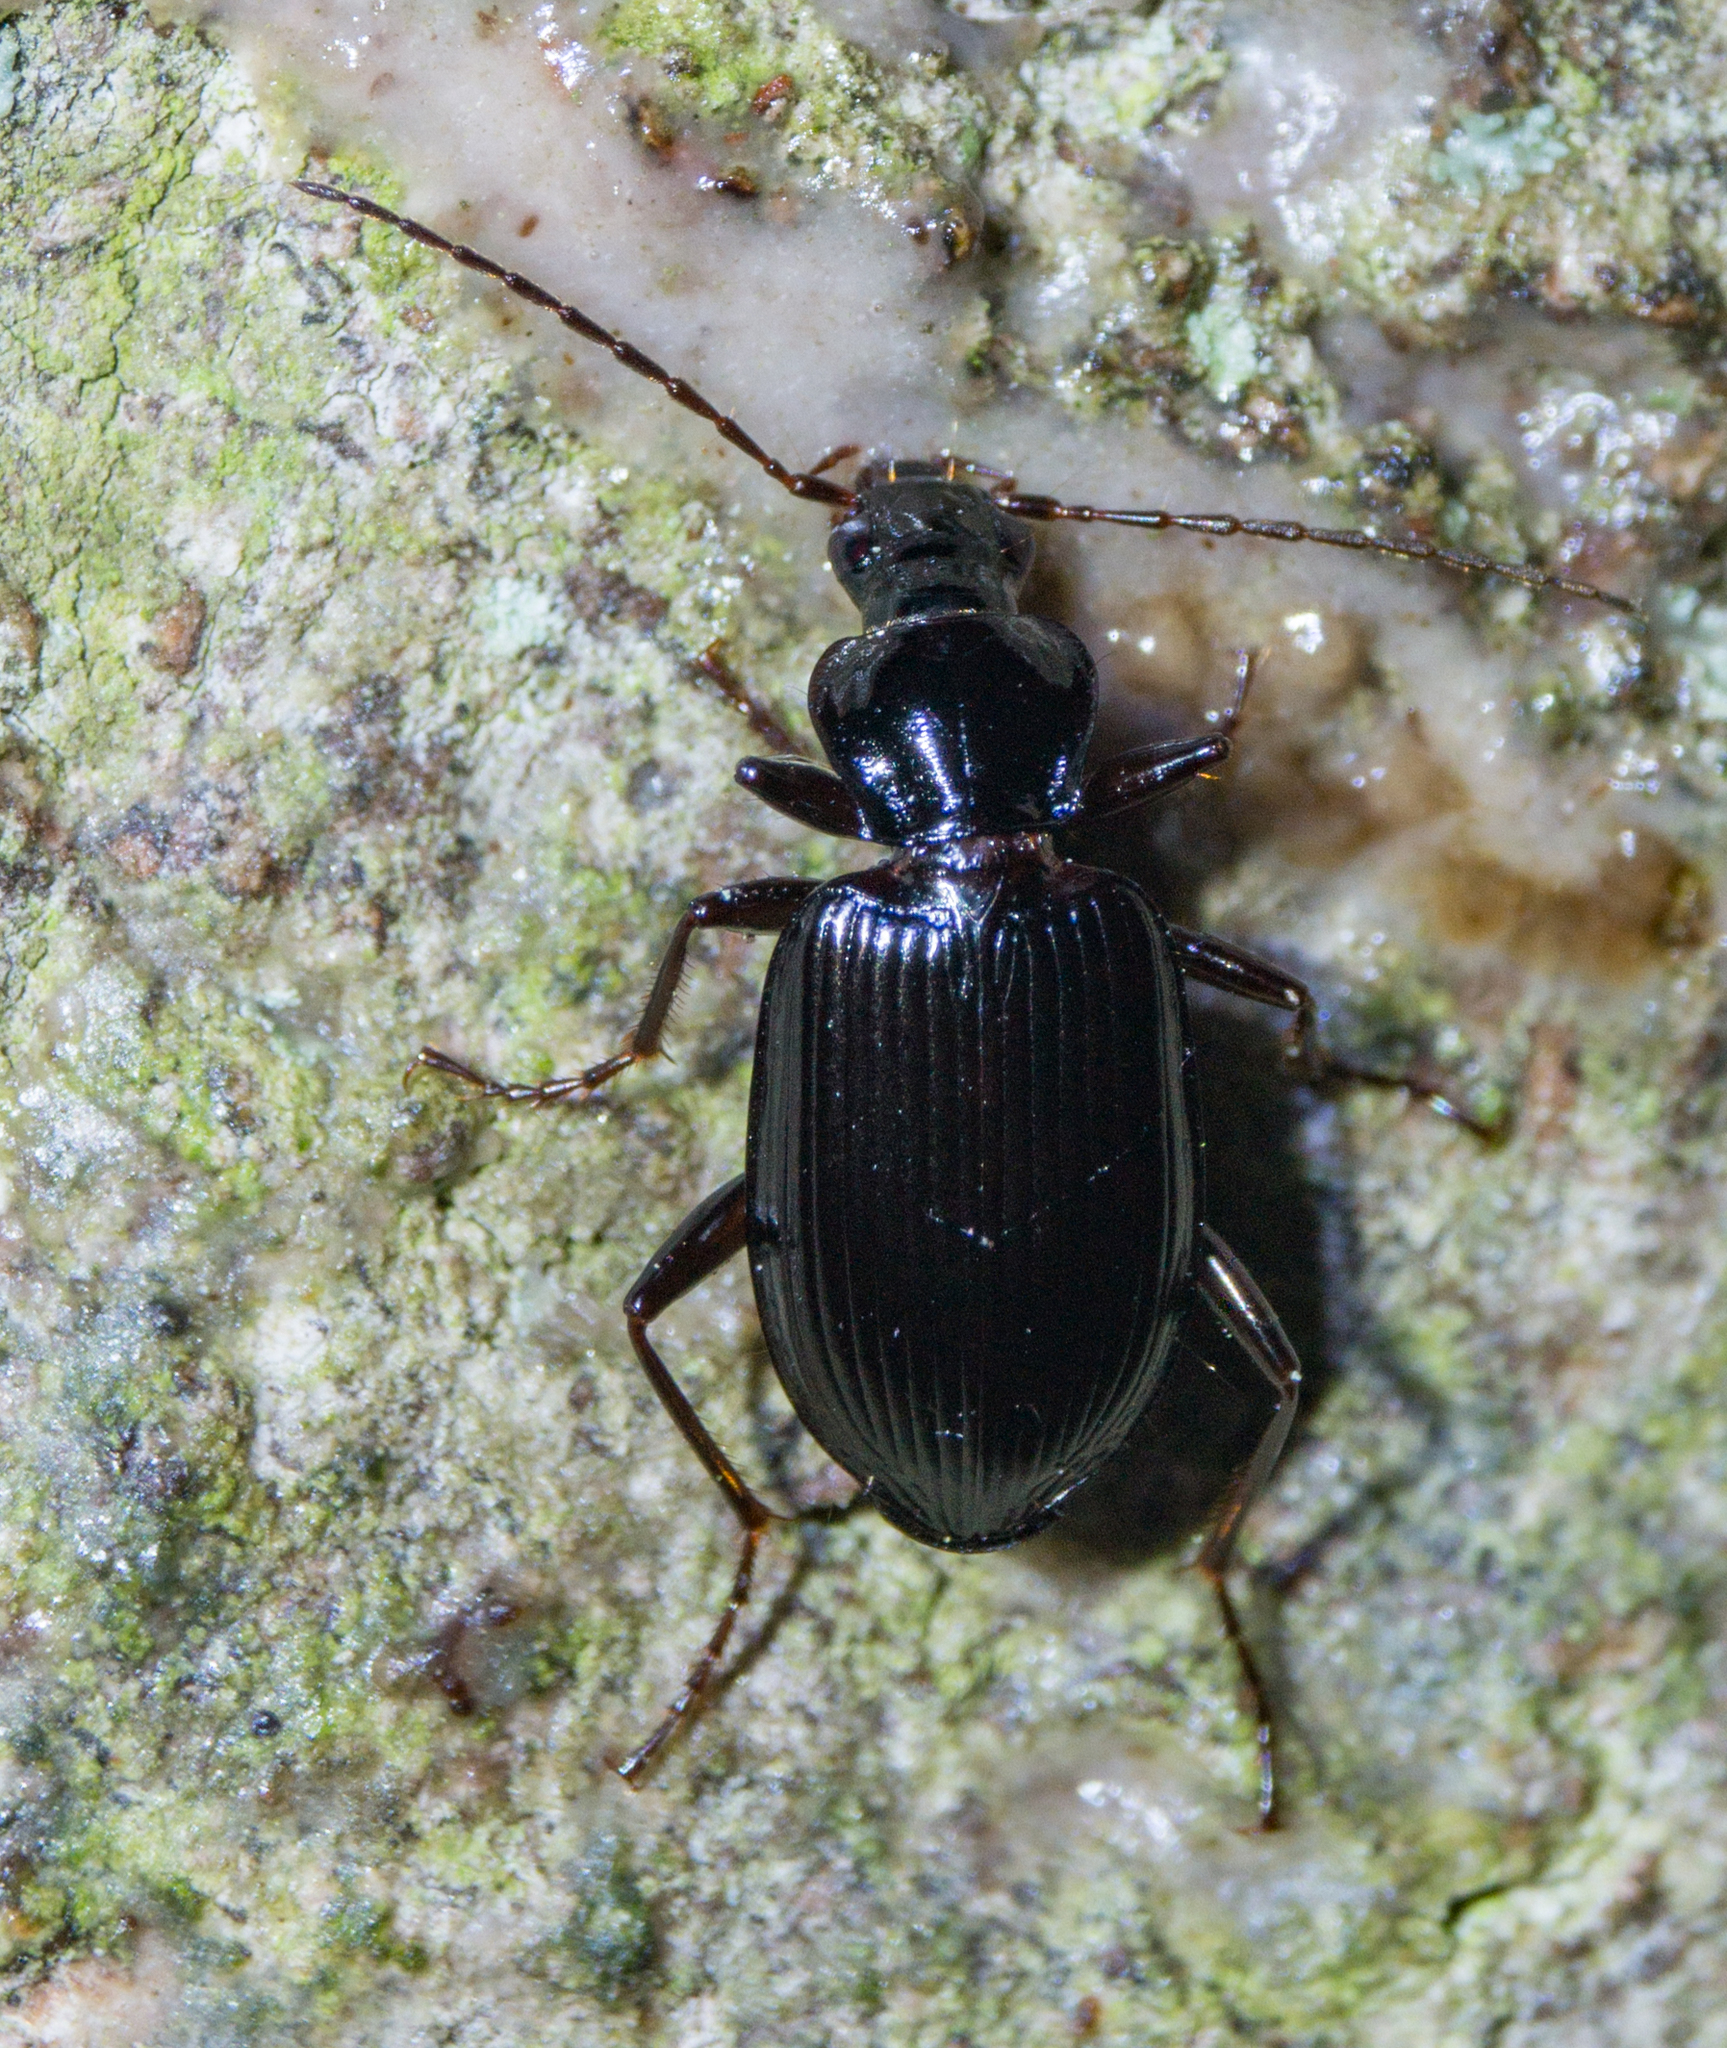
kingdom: Animalia
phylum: Arthropoda
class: Insecta
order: Coleoptera
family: Carabidae
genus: Platynus
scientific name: Platynus assimilis
